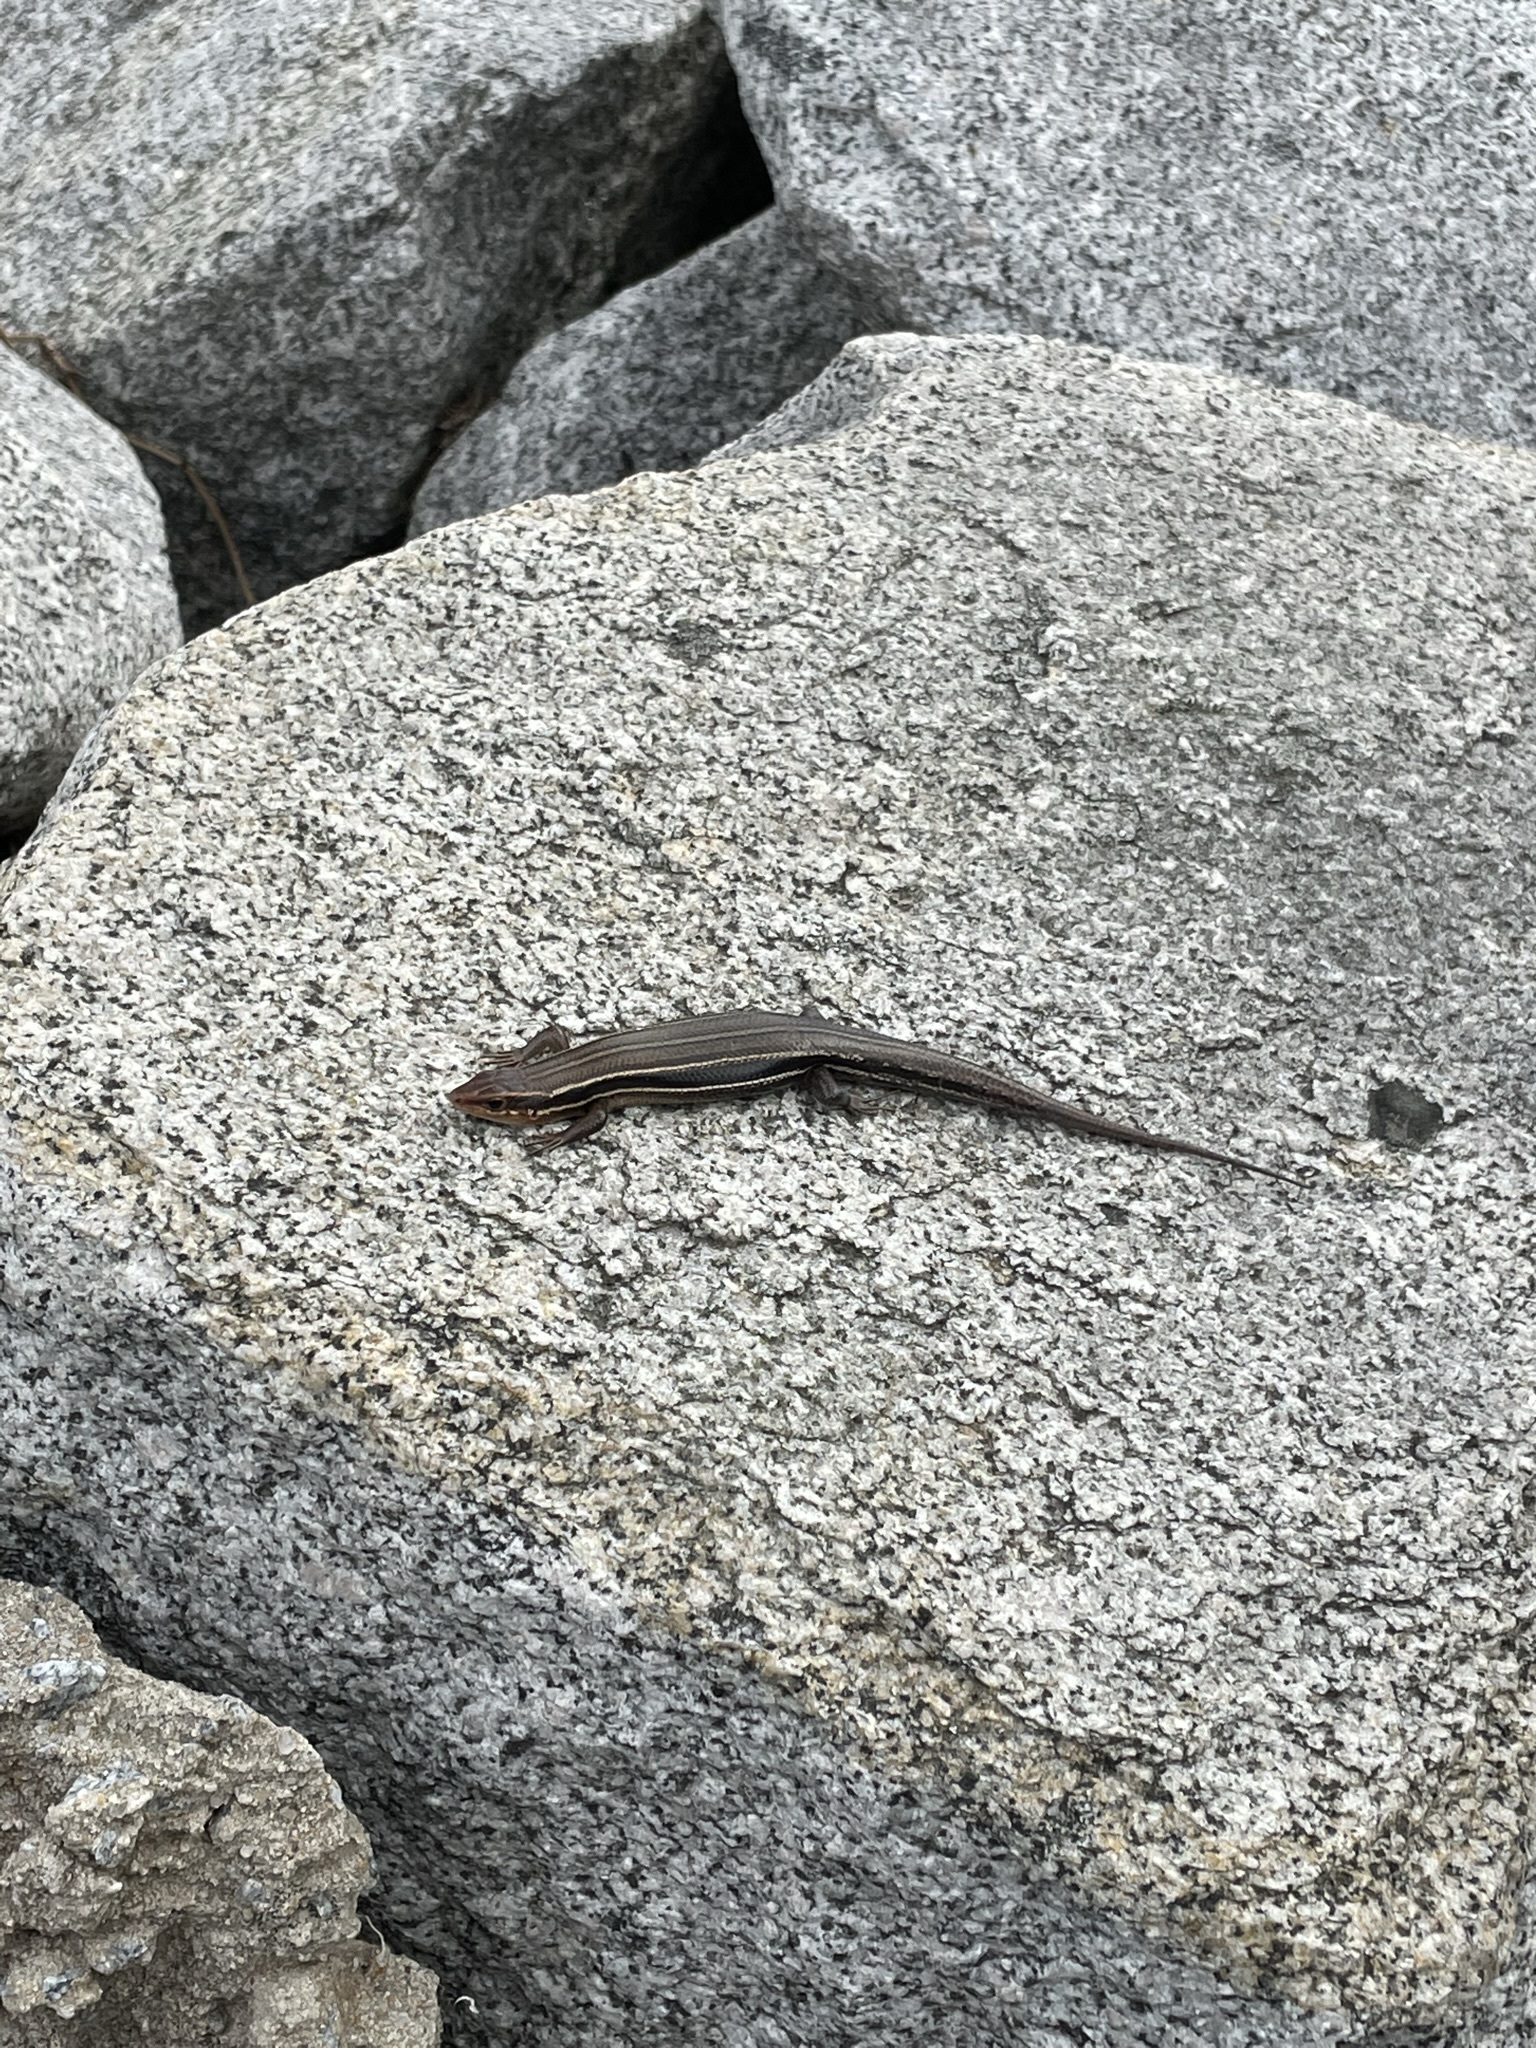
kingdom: Animalia
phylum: Chordata
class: Squamata
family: Scincidae
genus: Plestiodon
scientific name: Plestiodon inexpectatus
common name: Southeastern five-lined skink
